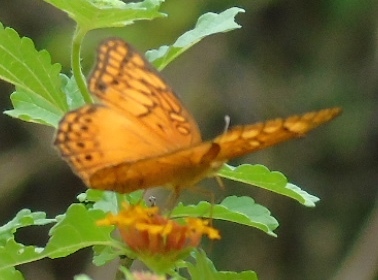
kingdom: Animalia
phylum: Arthropoda
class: Insecta
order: Lepidoptera
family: Nymphalidae
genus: Euptoieta
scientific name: Euptoieta hegesia
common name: Mexican fritillary
